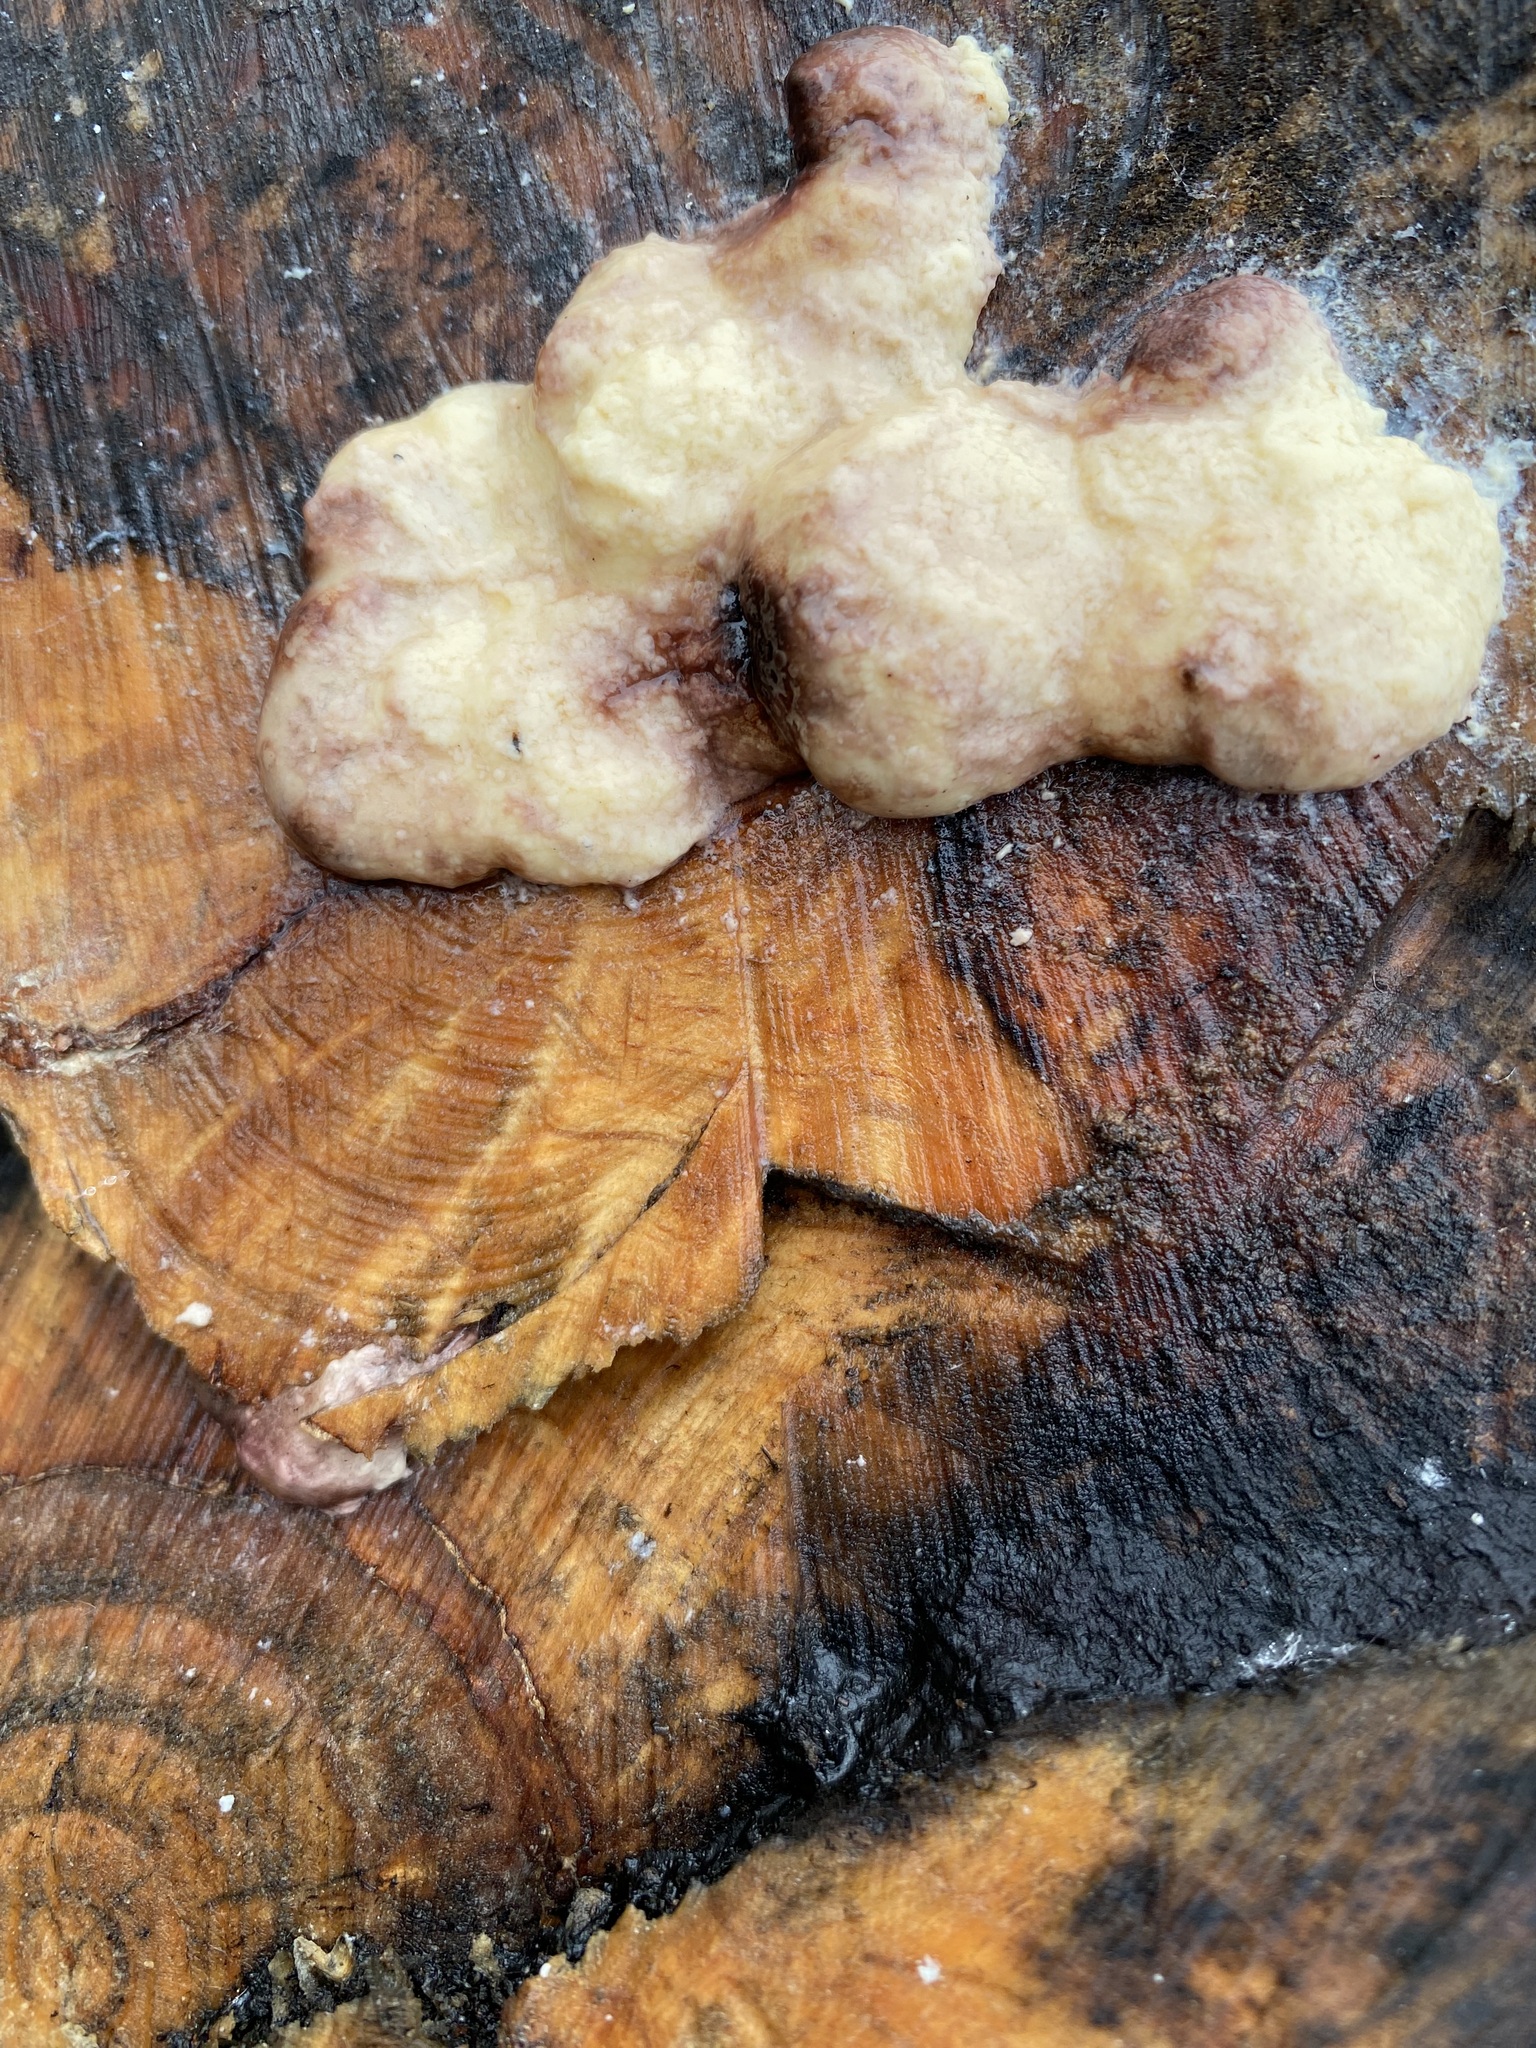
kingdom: Protozoa
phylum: Mycetozoa
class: Myxomycetes
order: Stemonitidales
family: Stemonitidaceae
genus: Brefeldia
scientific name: Brefeldia maxima
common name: Tapioca slime mold
